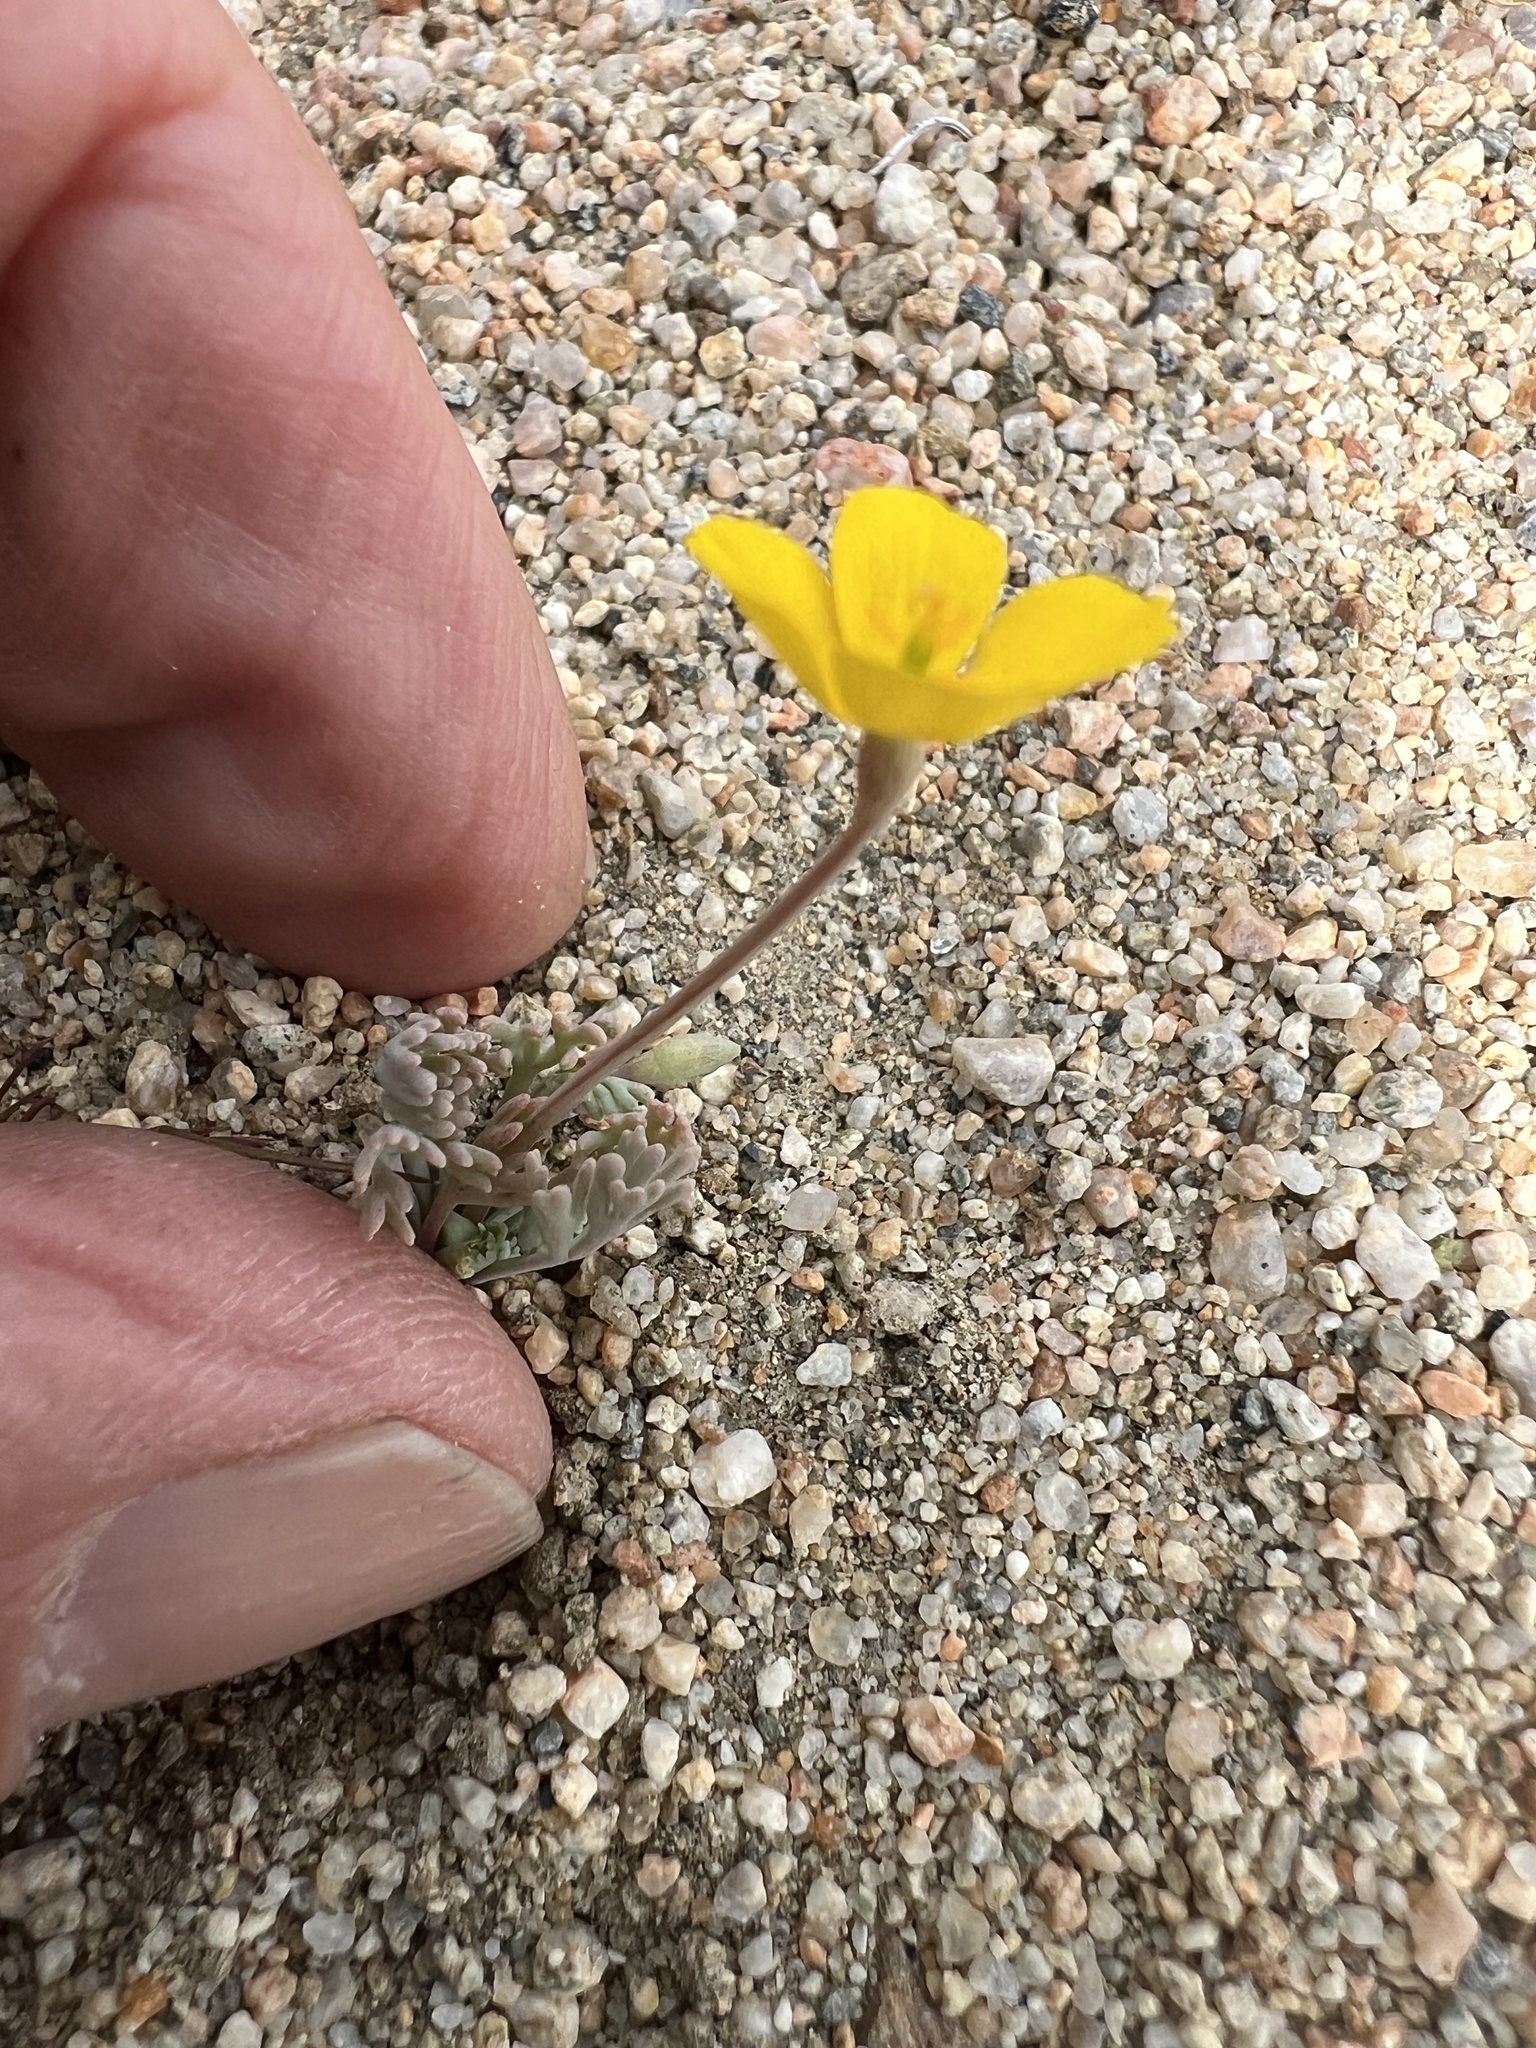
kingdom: Plantae
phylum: Tracheophyta
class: Magnoliopsida
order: Ranunculales
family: Papaveraceae
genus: Eschscholzia
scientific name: Eschscholzia minutiflora
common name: Small-flower california-poppy
